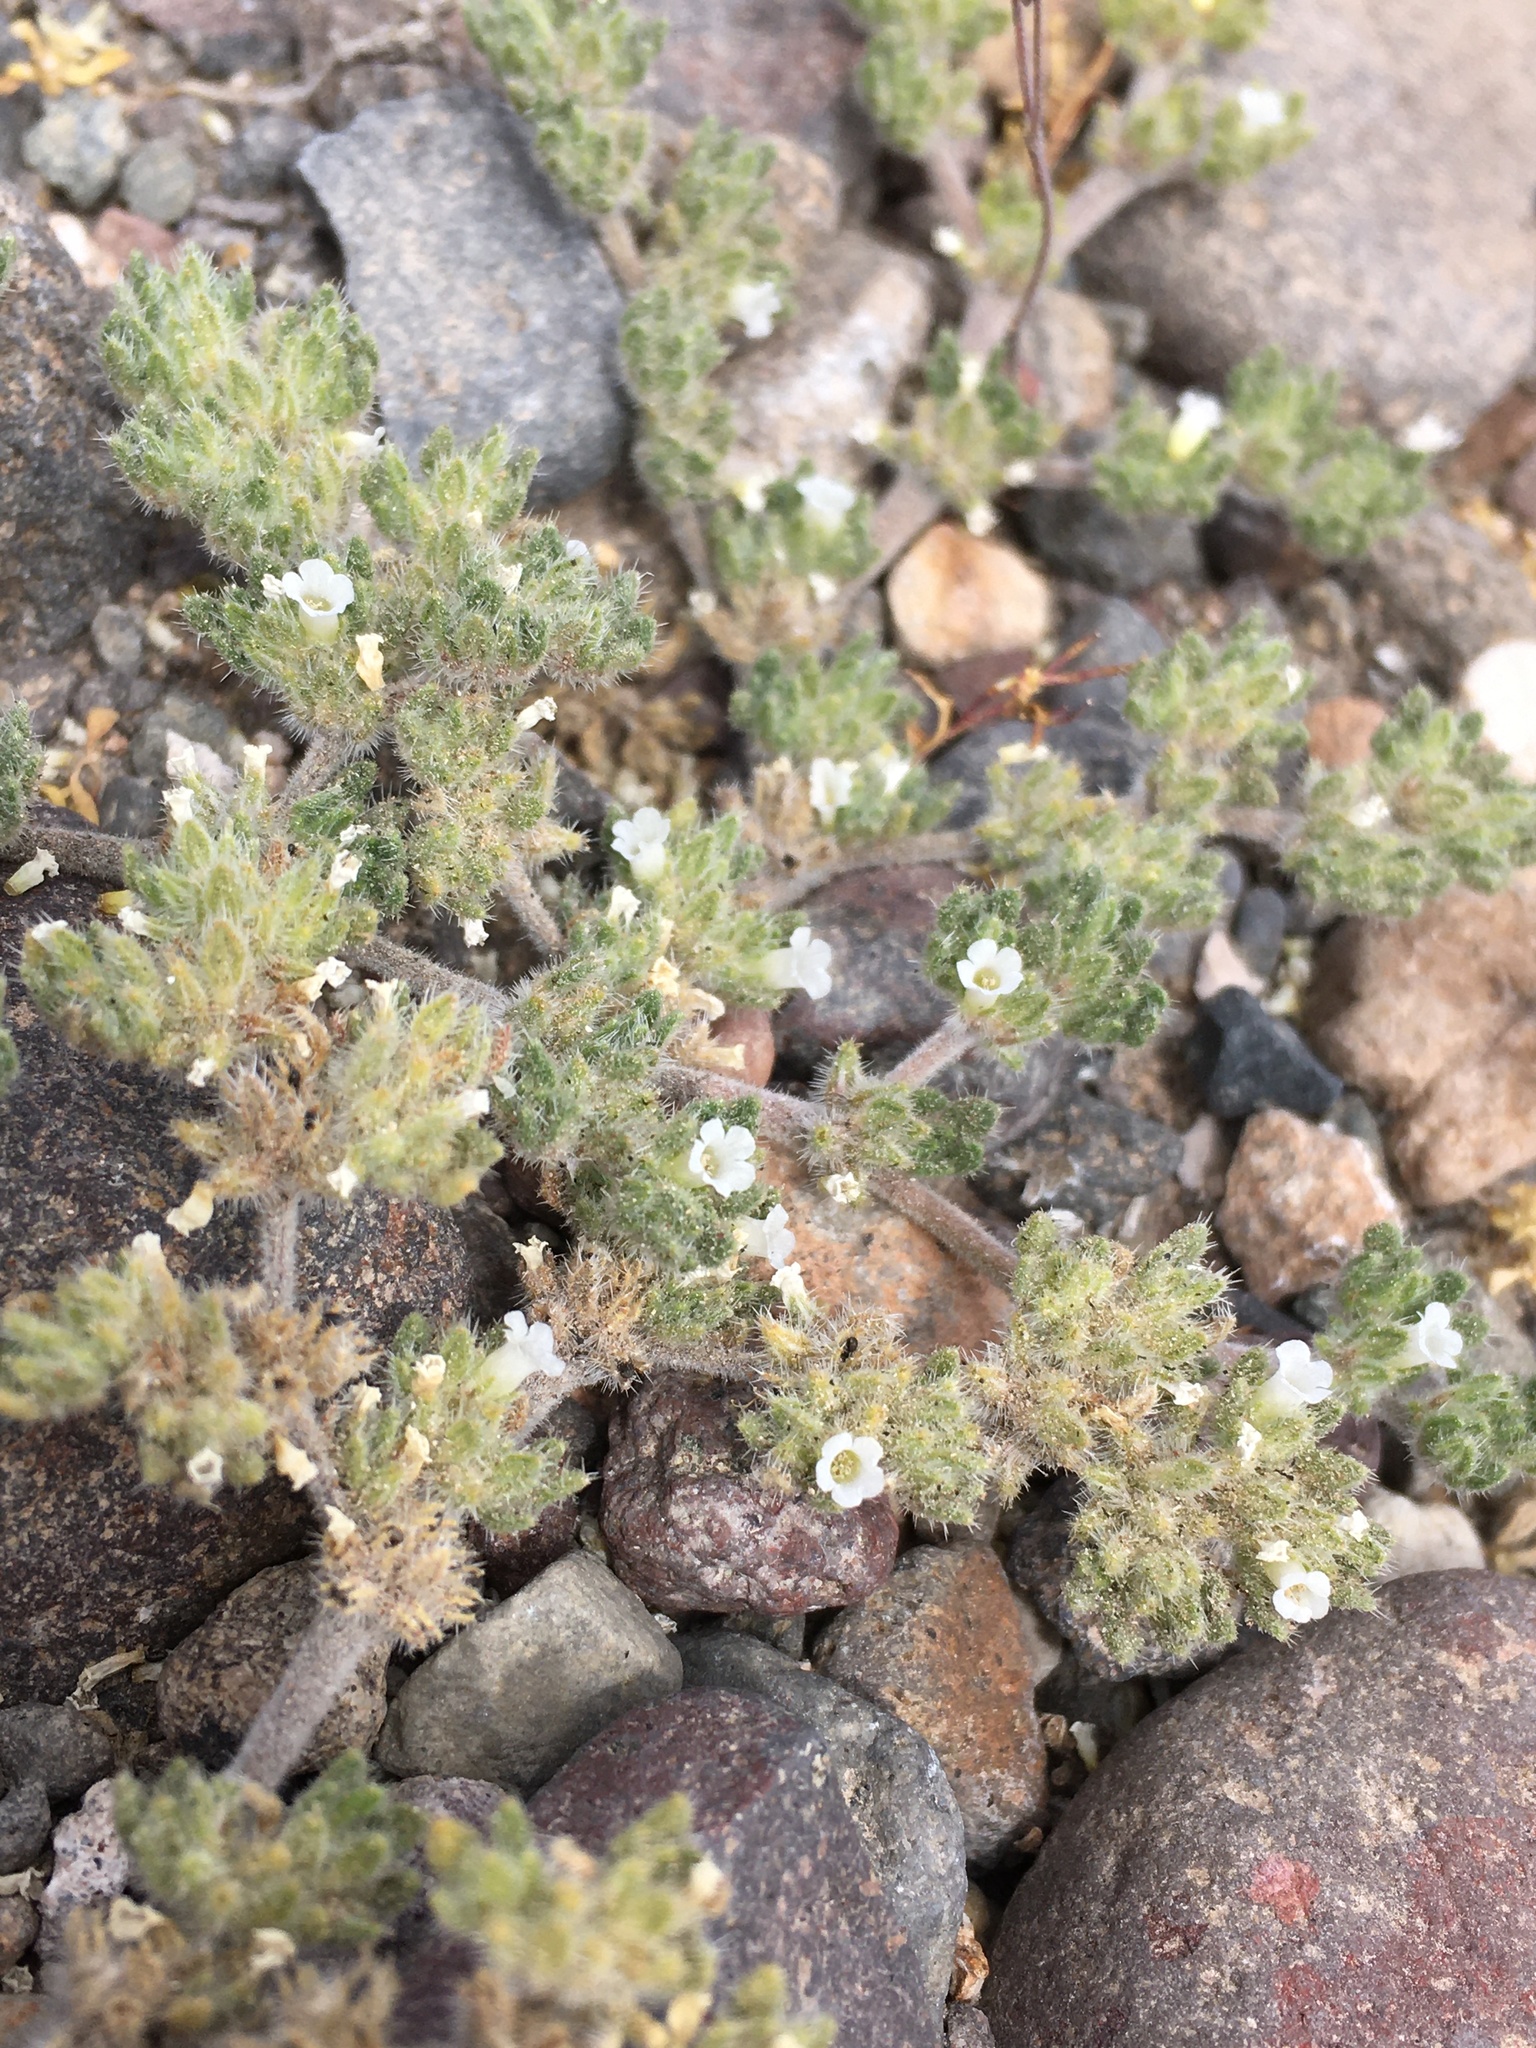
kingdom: Plantae
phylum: Tracheophyta
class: Magnoliopsida
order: Boraginales
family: Ehretiaceae
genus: Tiquilia
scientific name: Tiquilia paronychioides
